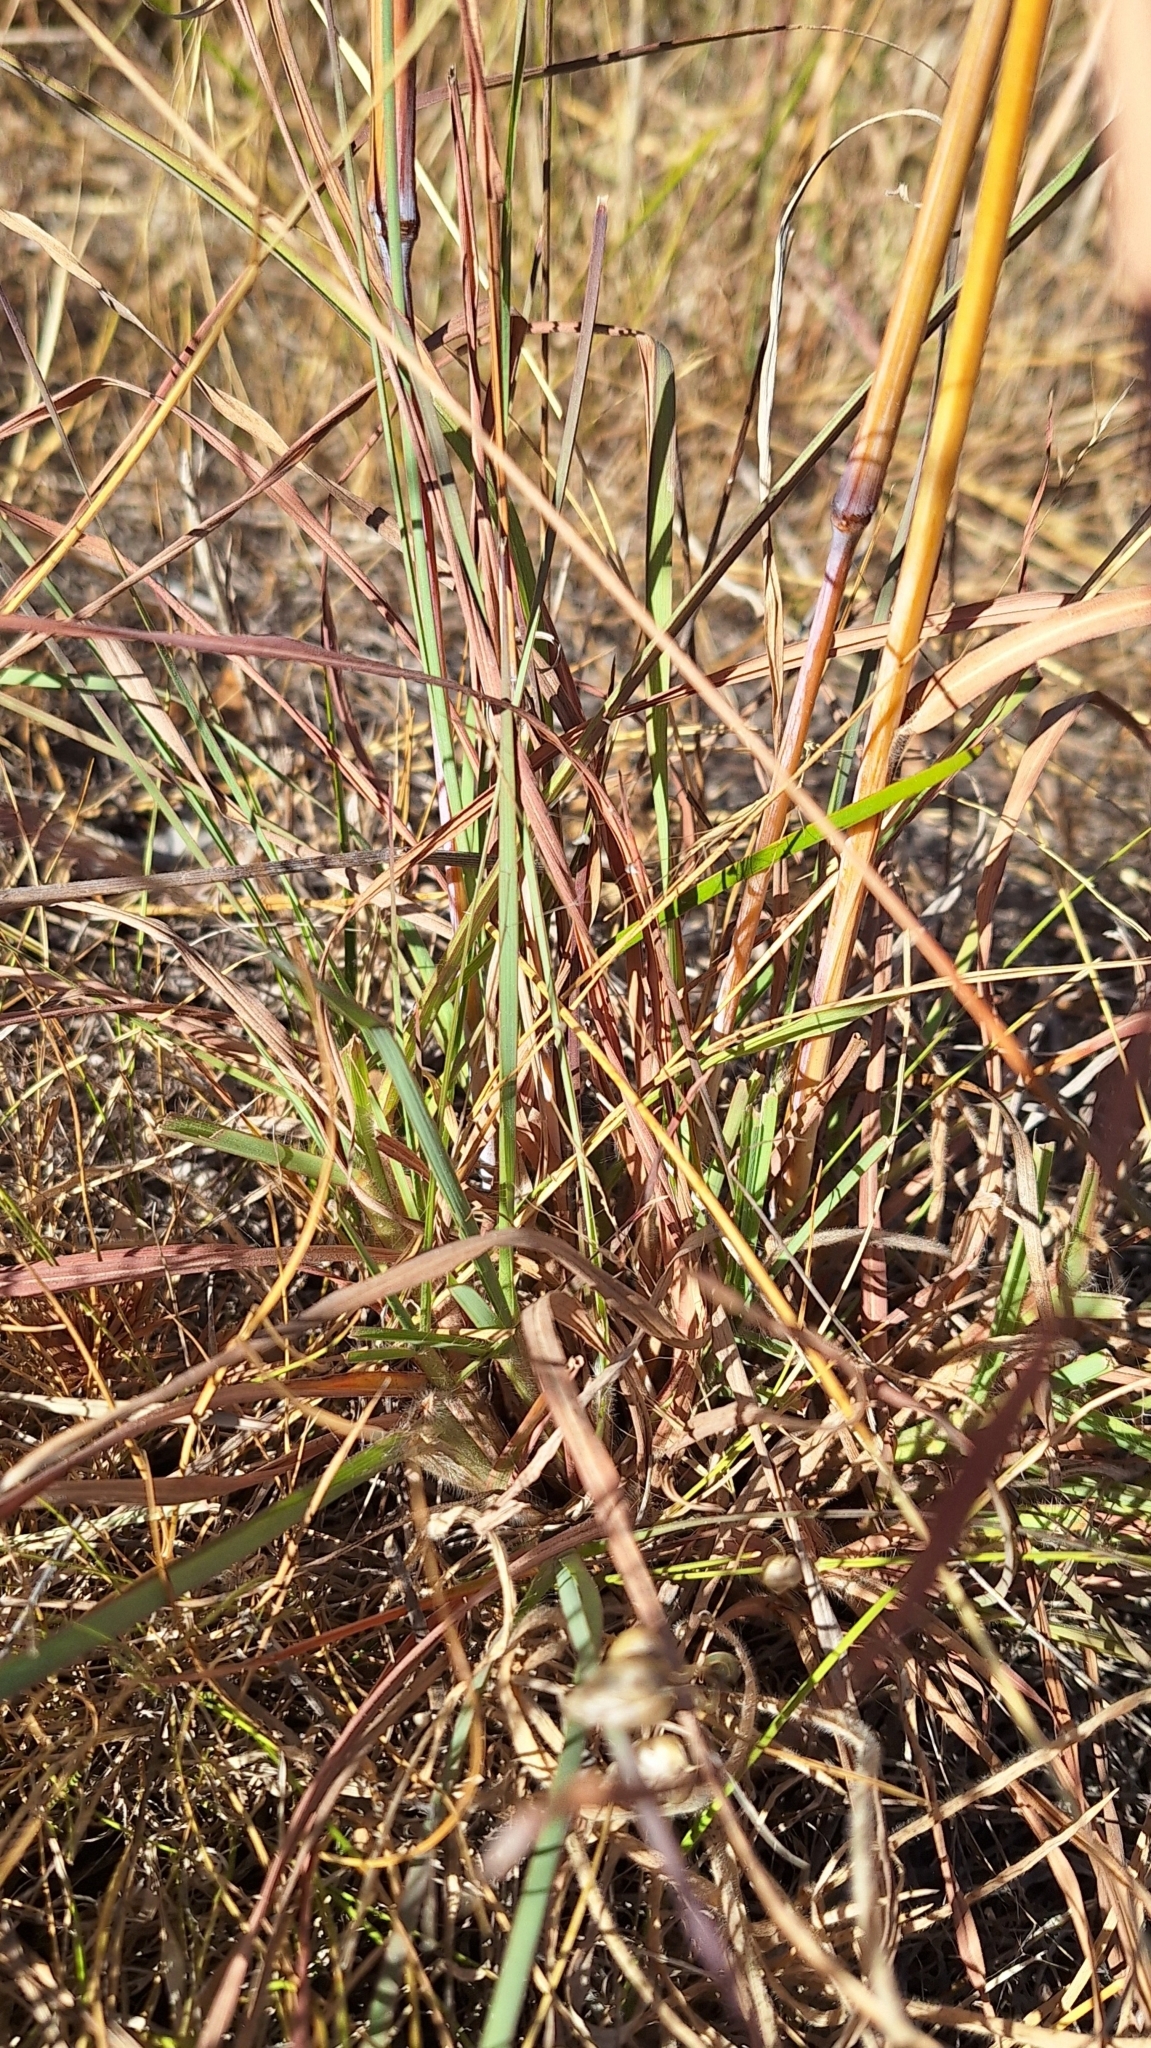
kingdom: Plantae
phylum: Tracheophyta
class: Liliopsida
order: Poales
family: Poaceae
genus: Themeda
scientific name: Themeda triandra
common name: Kangaroo grass
